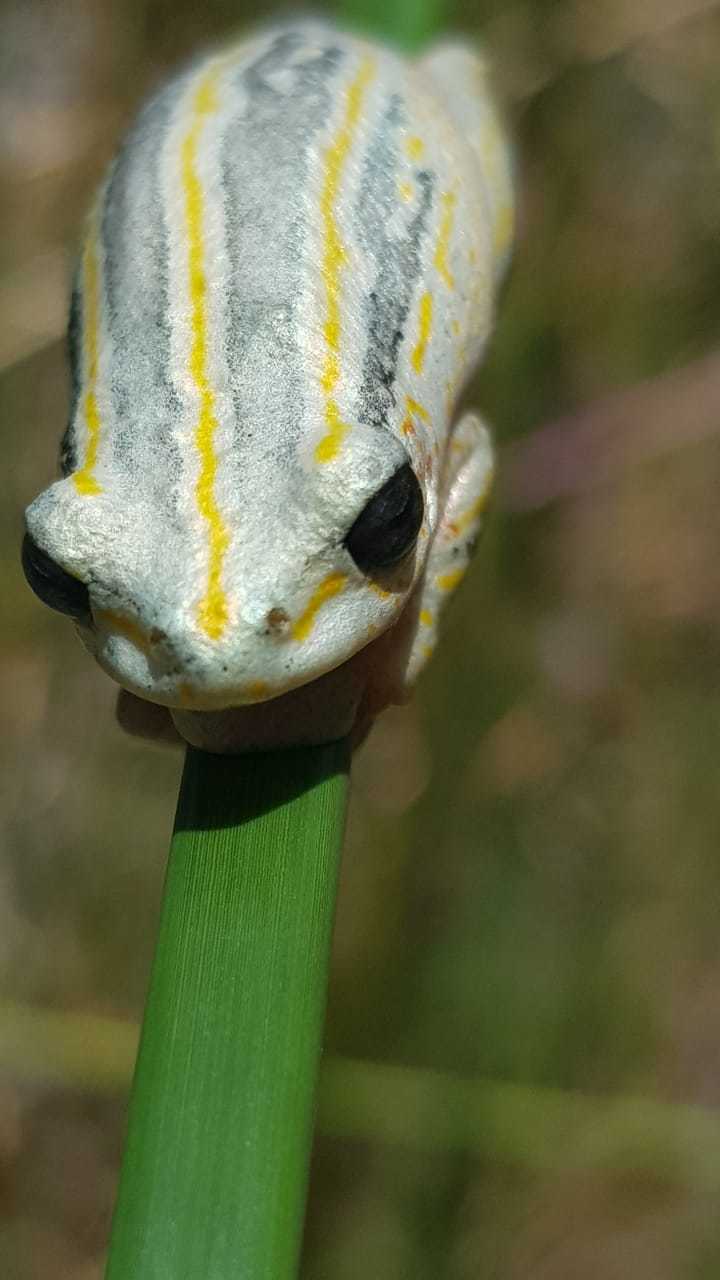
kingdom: Animalia
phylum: Chordata
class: Amphibia
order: Anura
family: Hyperoliidae
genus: Hyperolius
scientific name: Hyperolius marmoratus
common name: Painted reed frog
